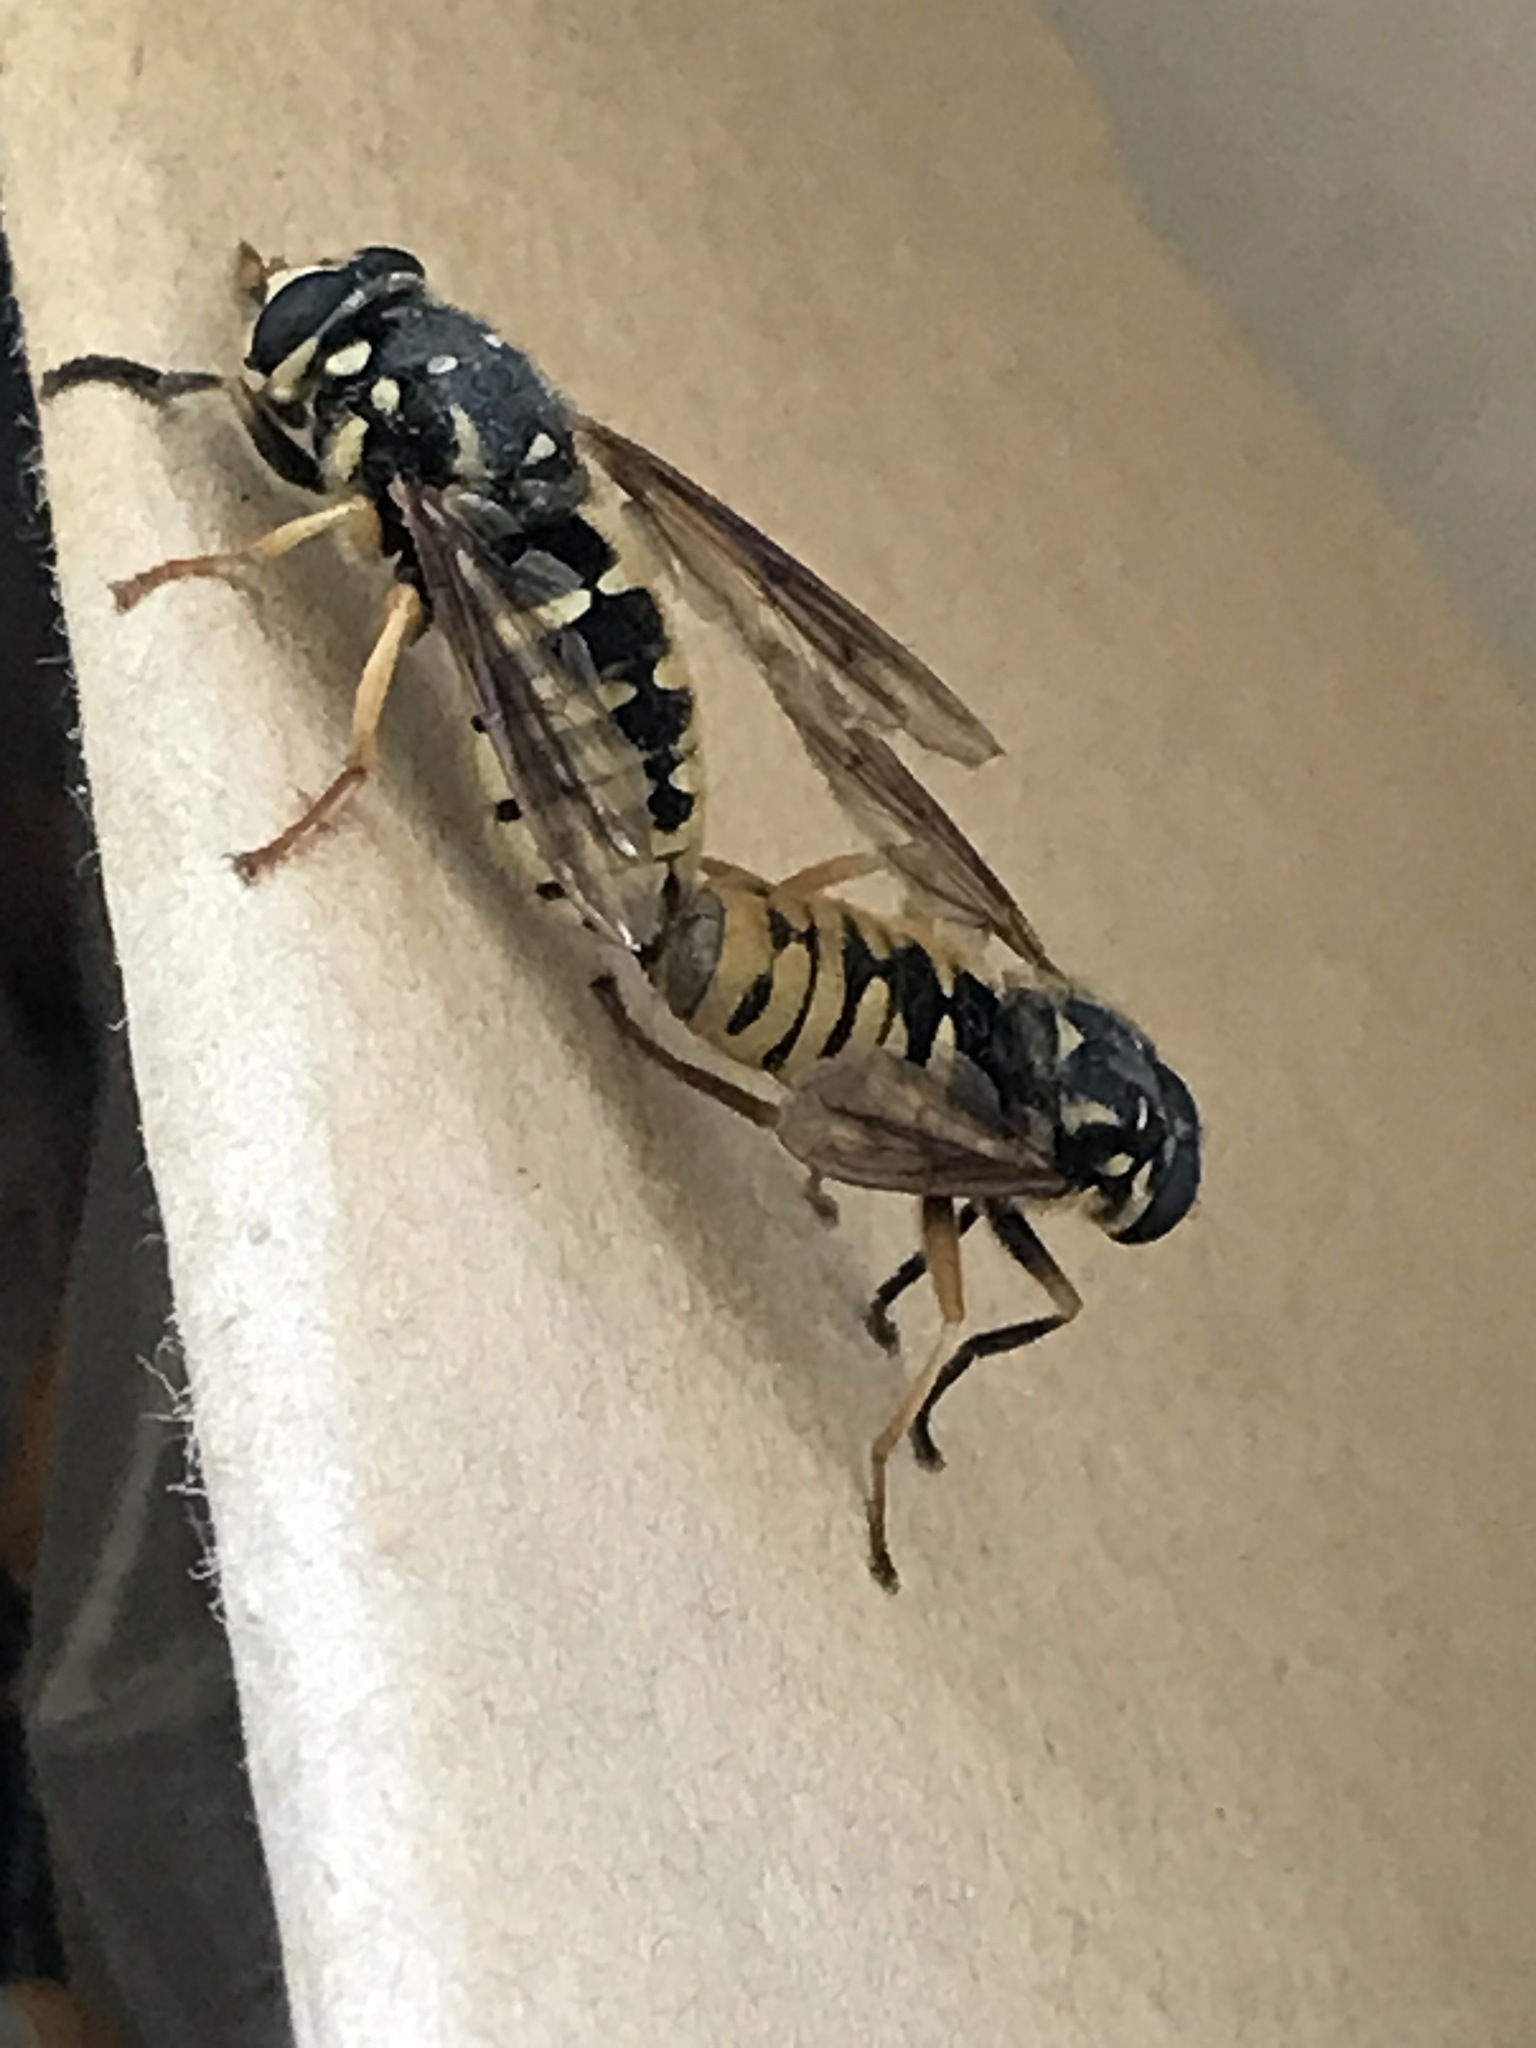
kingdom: Animalia
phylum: Arthropoda
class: Insecta
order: Diptera
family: Syrphidae
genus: Temnostoma
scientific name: Temnostoma alternans
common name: Wasp-like falsehorn
